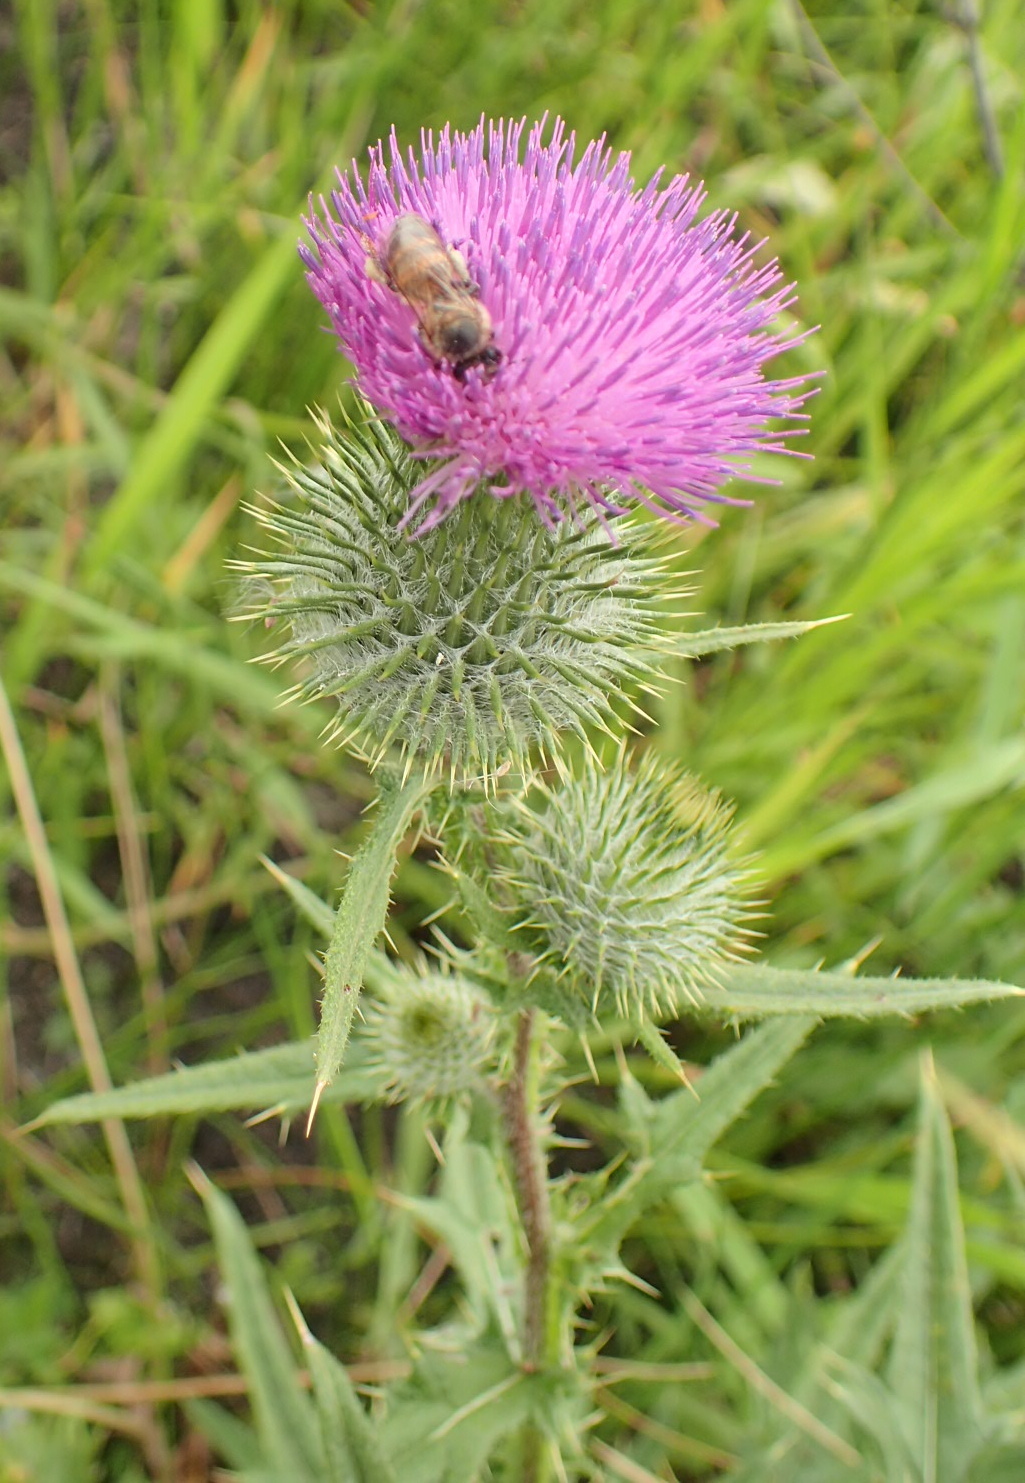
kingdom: Plantae
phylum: Tracheophyta
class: Magnoliopsida
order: Asterales
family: Asteraceae
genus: Cirsium
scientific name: Cirsium vulgare
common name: Bull thistle
